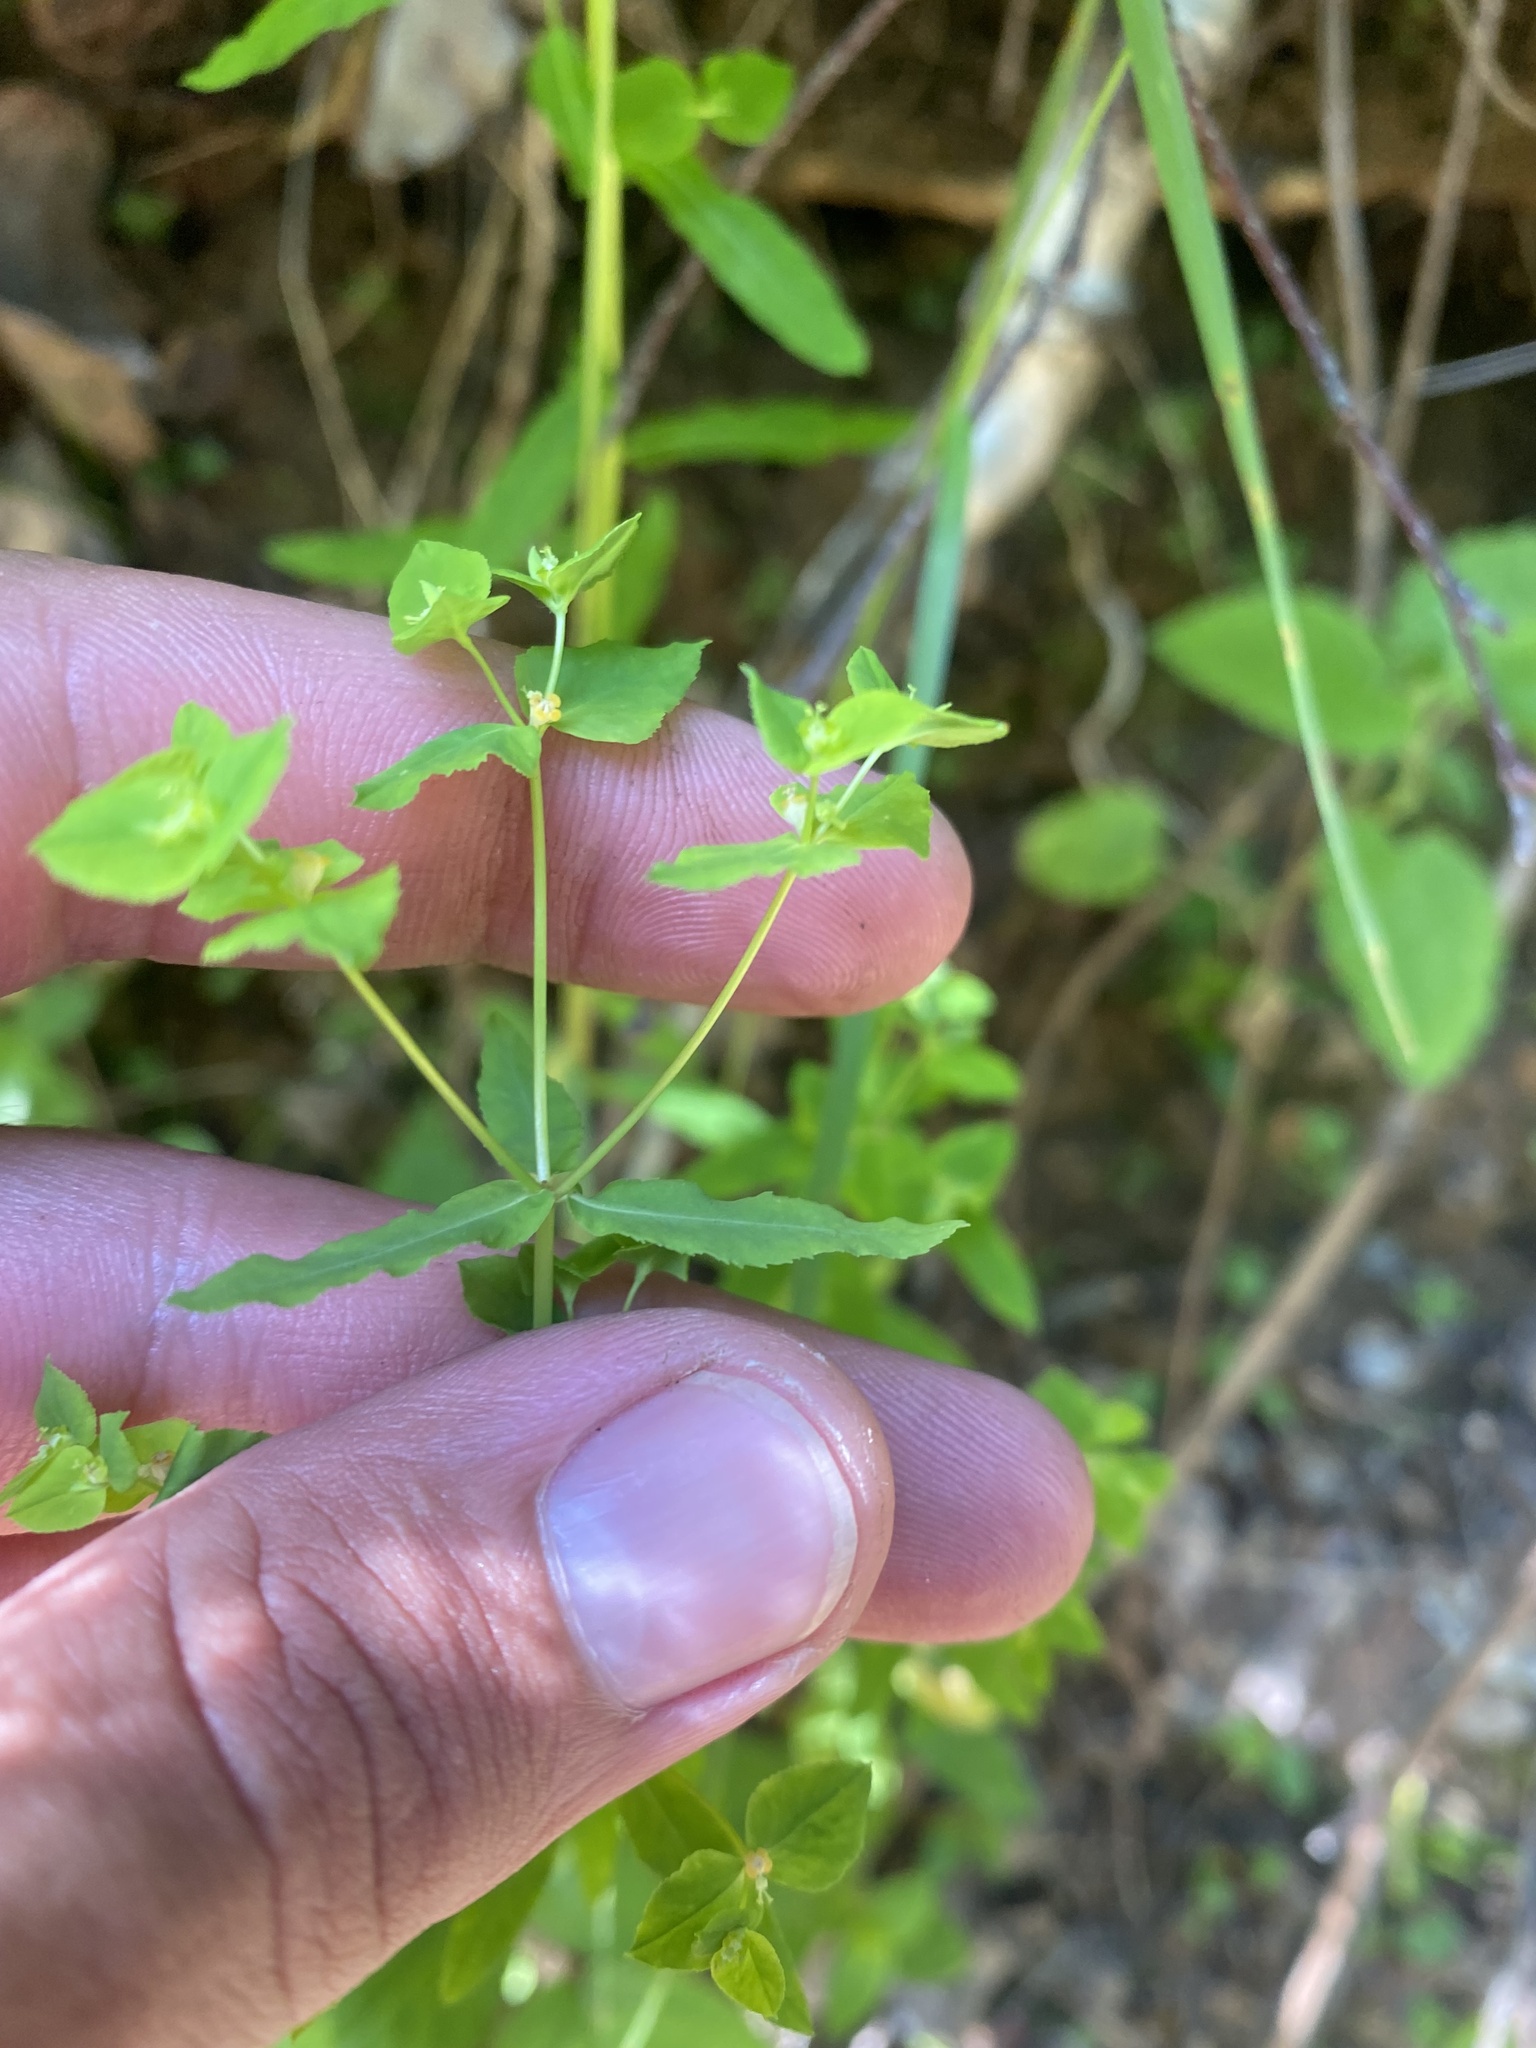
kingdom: Plantae
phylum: Tracheophyta
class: Magnoliopsida
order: Malpighiales
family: Euphorbiaceae
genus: Euphorbia
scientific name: Euphorbia stricta
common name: Upright spurge
